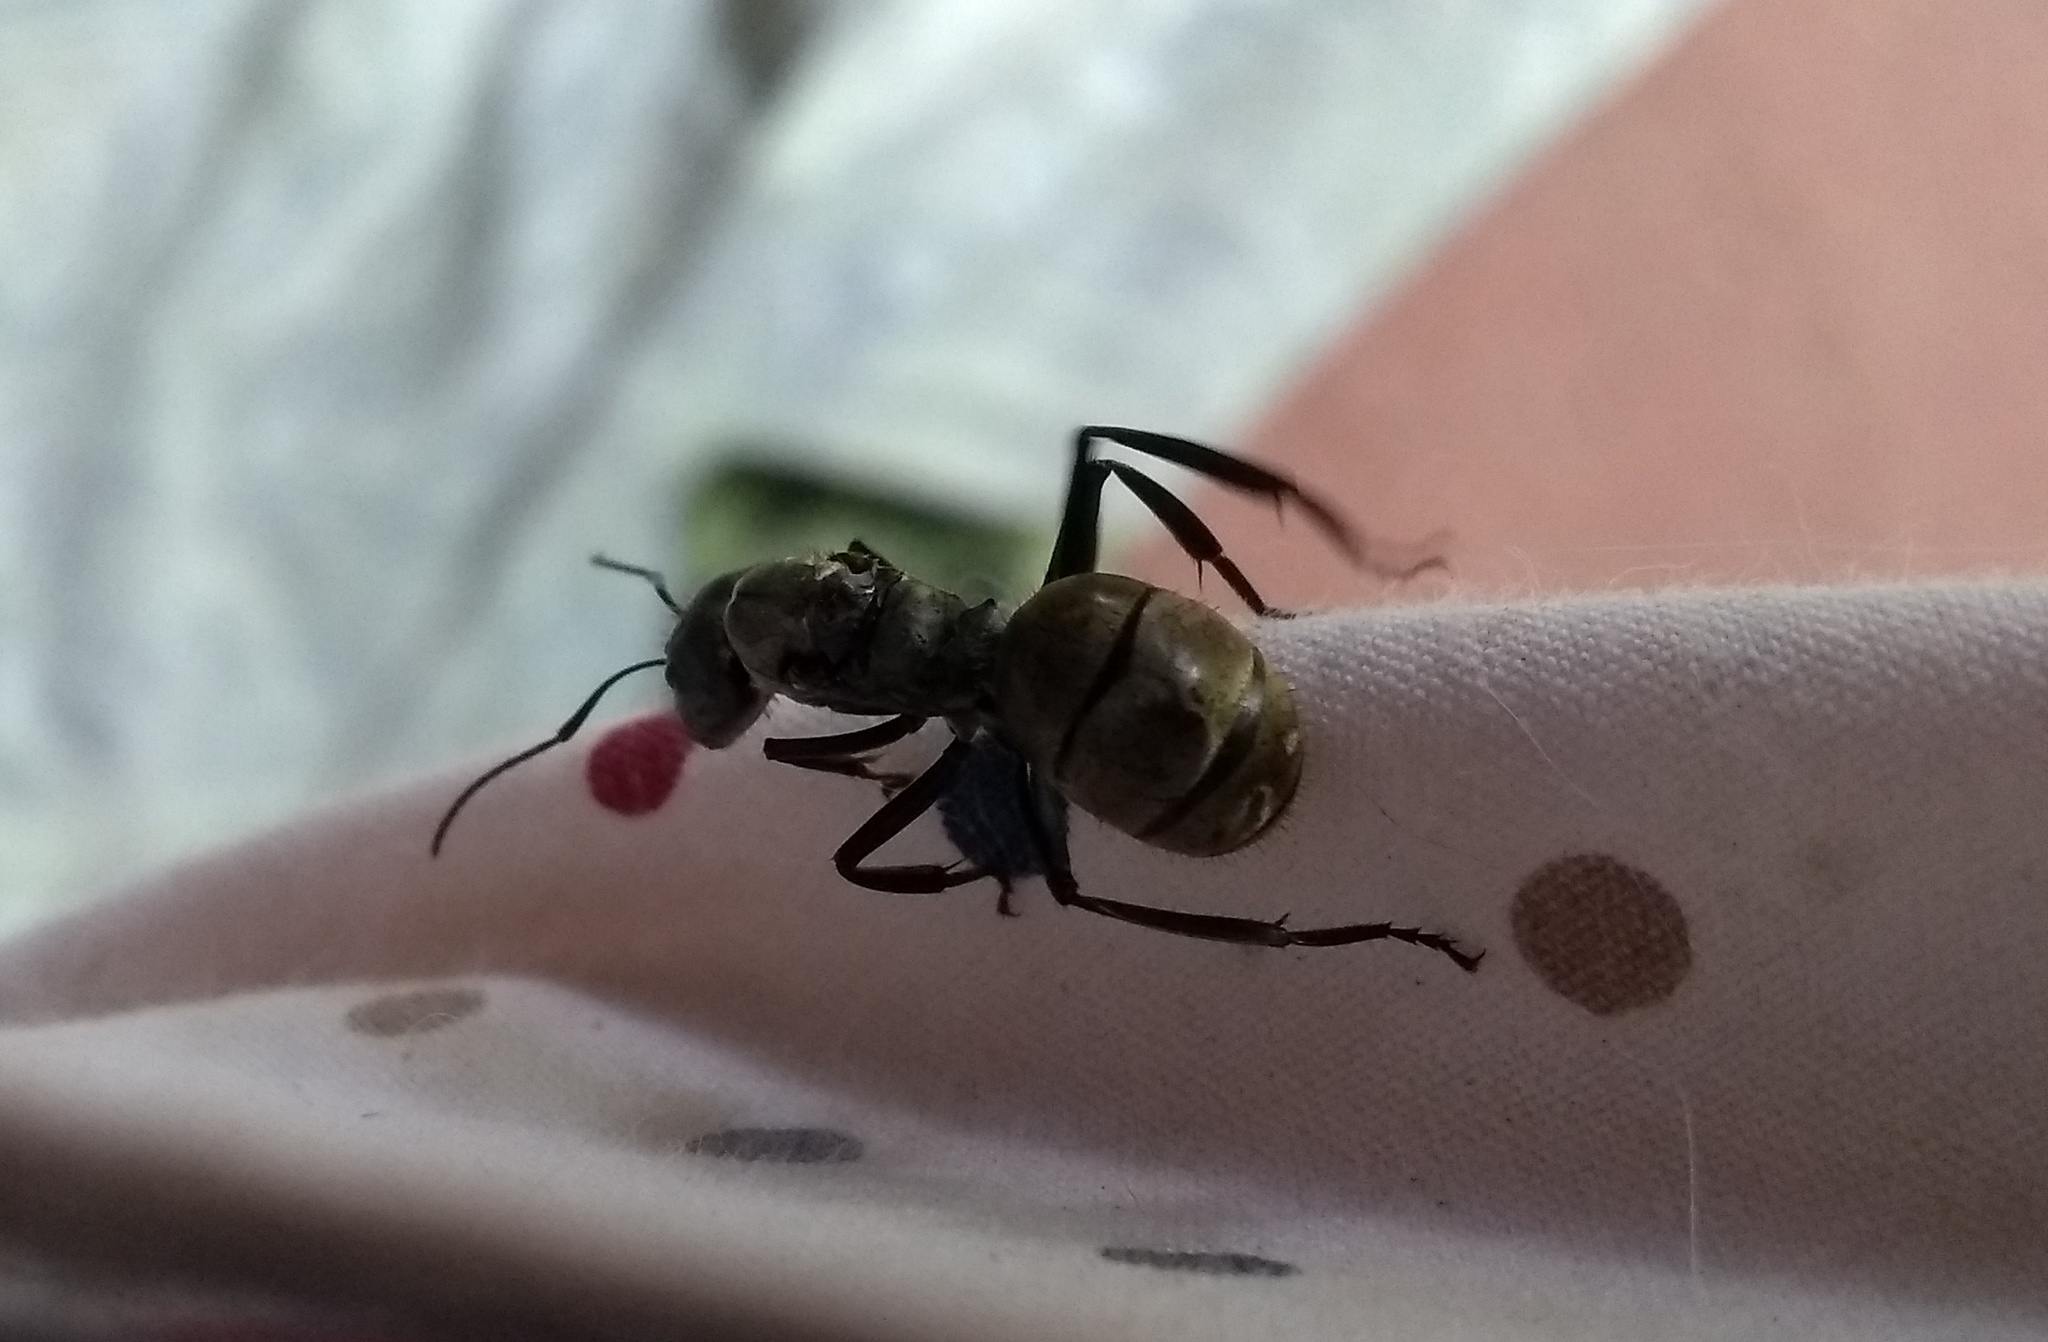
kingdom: Animalia
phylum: Arthropoda
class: Insecta
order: Hymenoptera
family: Formicidae
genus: Camponotus
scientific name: Camponotus sericeiventris
